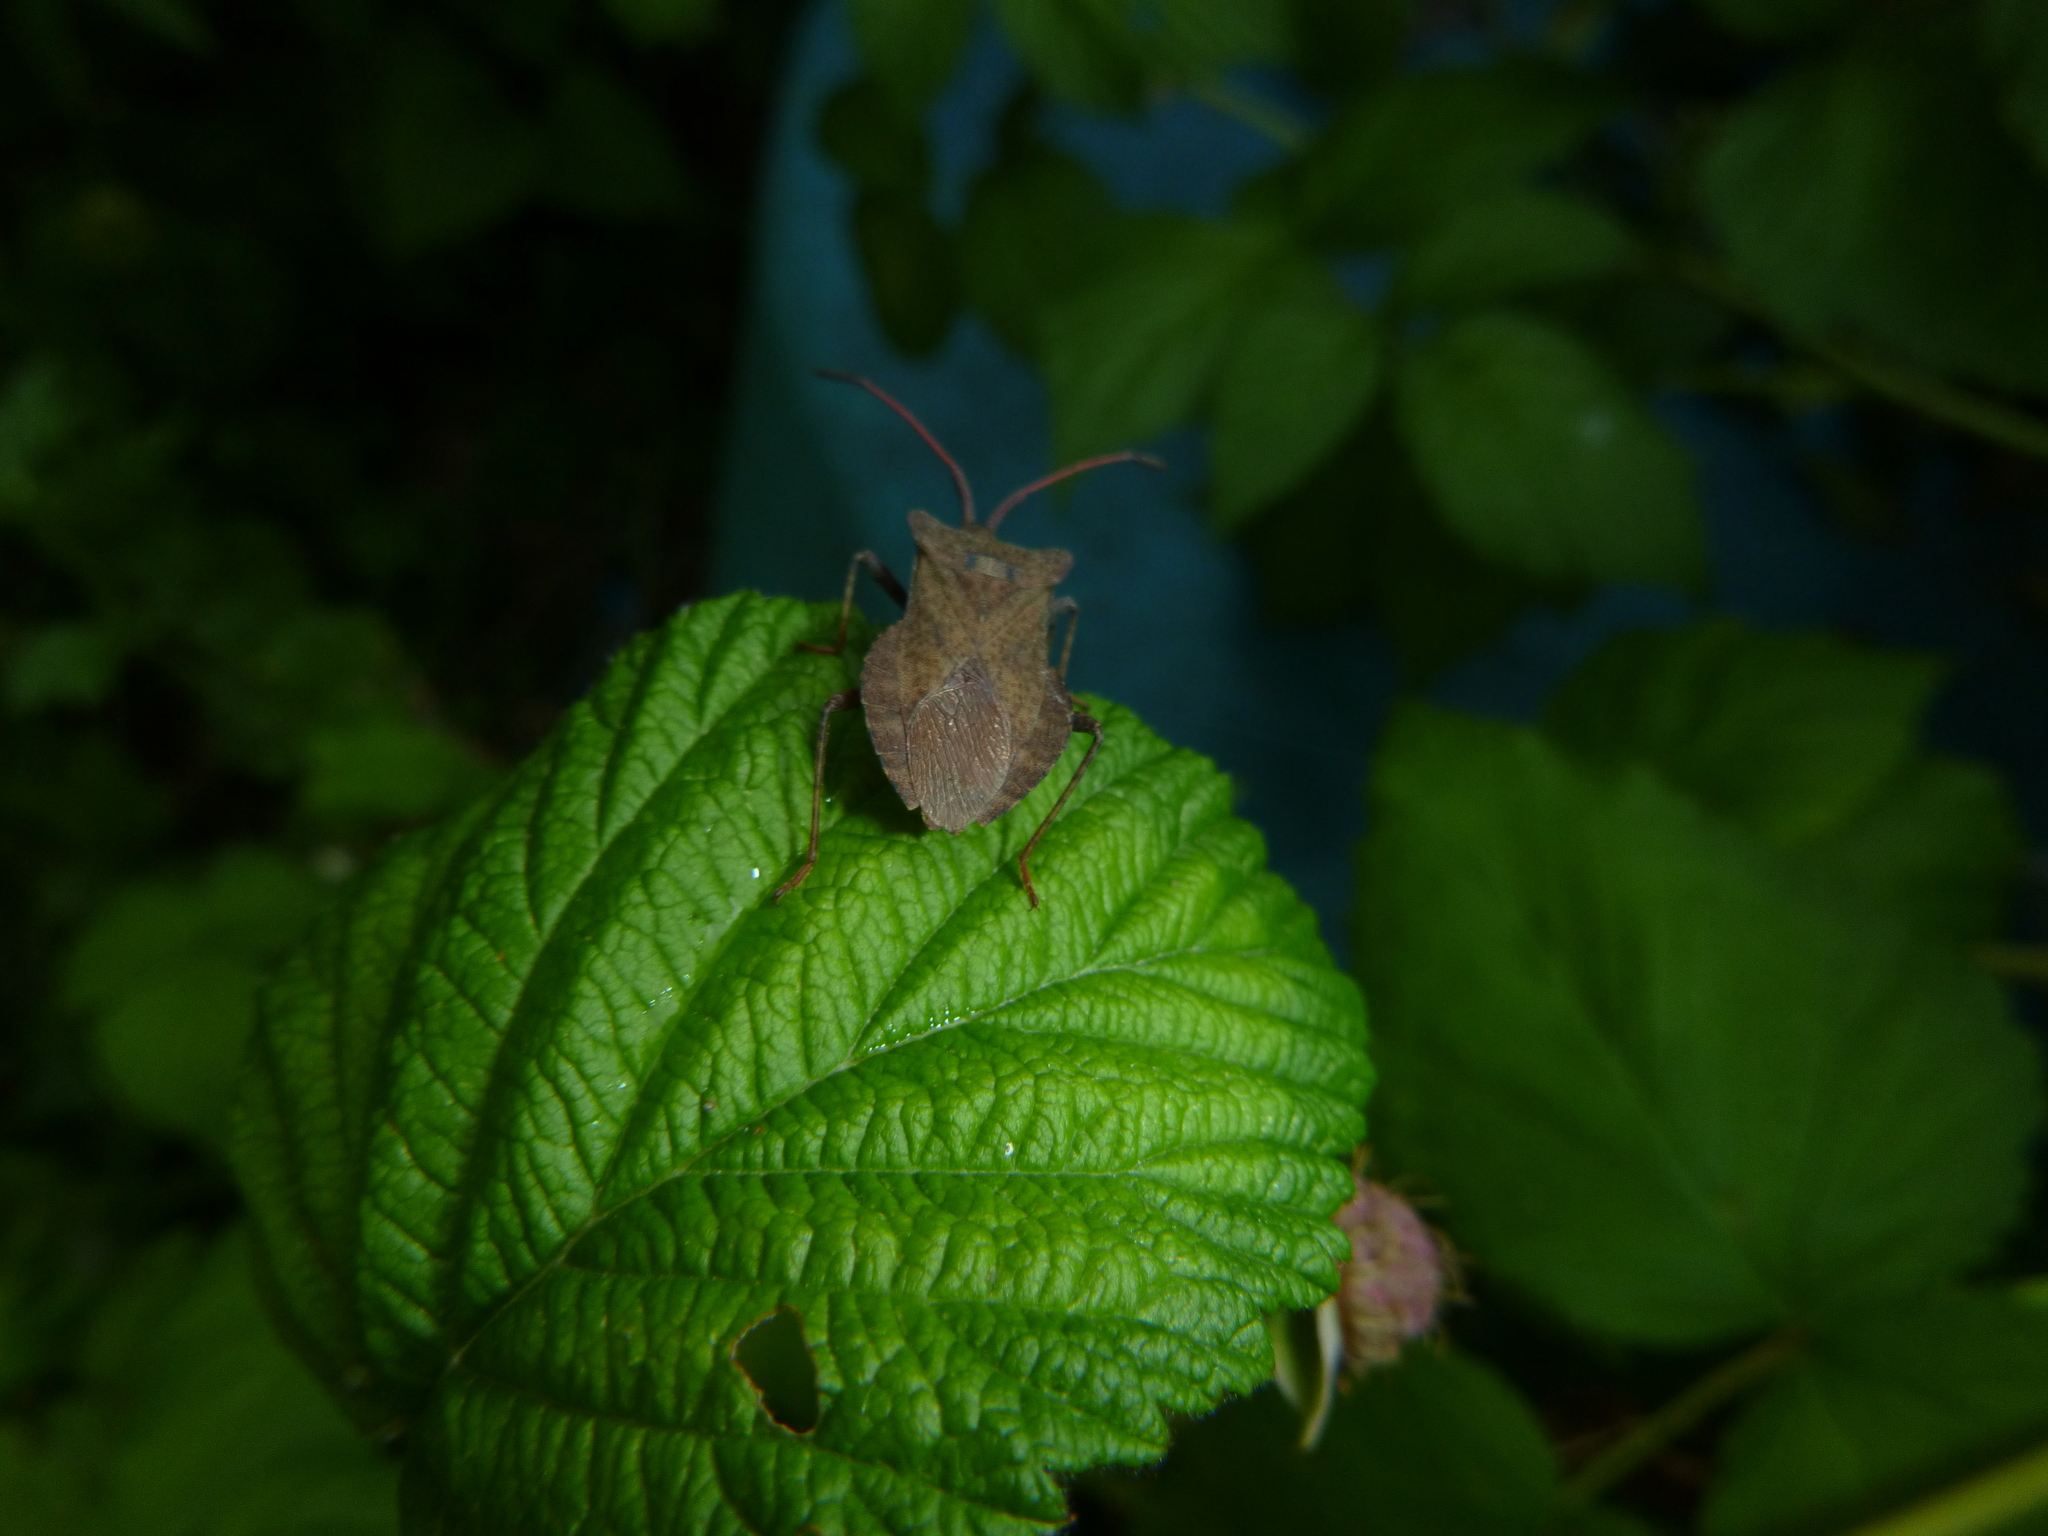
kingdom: Animalia
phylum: Arthropoda
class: Insecta
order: Hemiptera
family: Coreidae
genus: Coreus
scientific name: Coreus marginatus
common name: Dock bug
